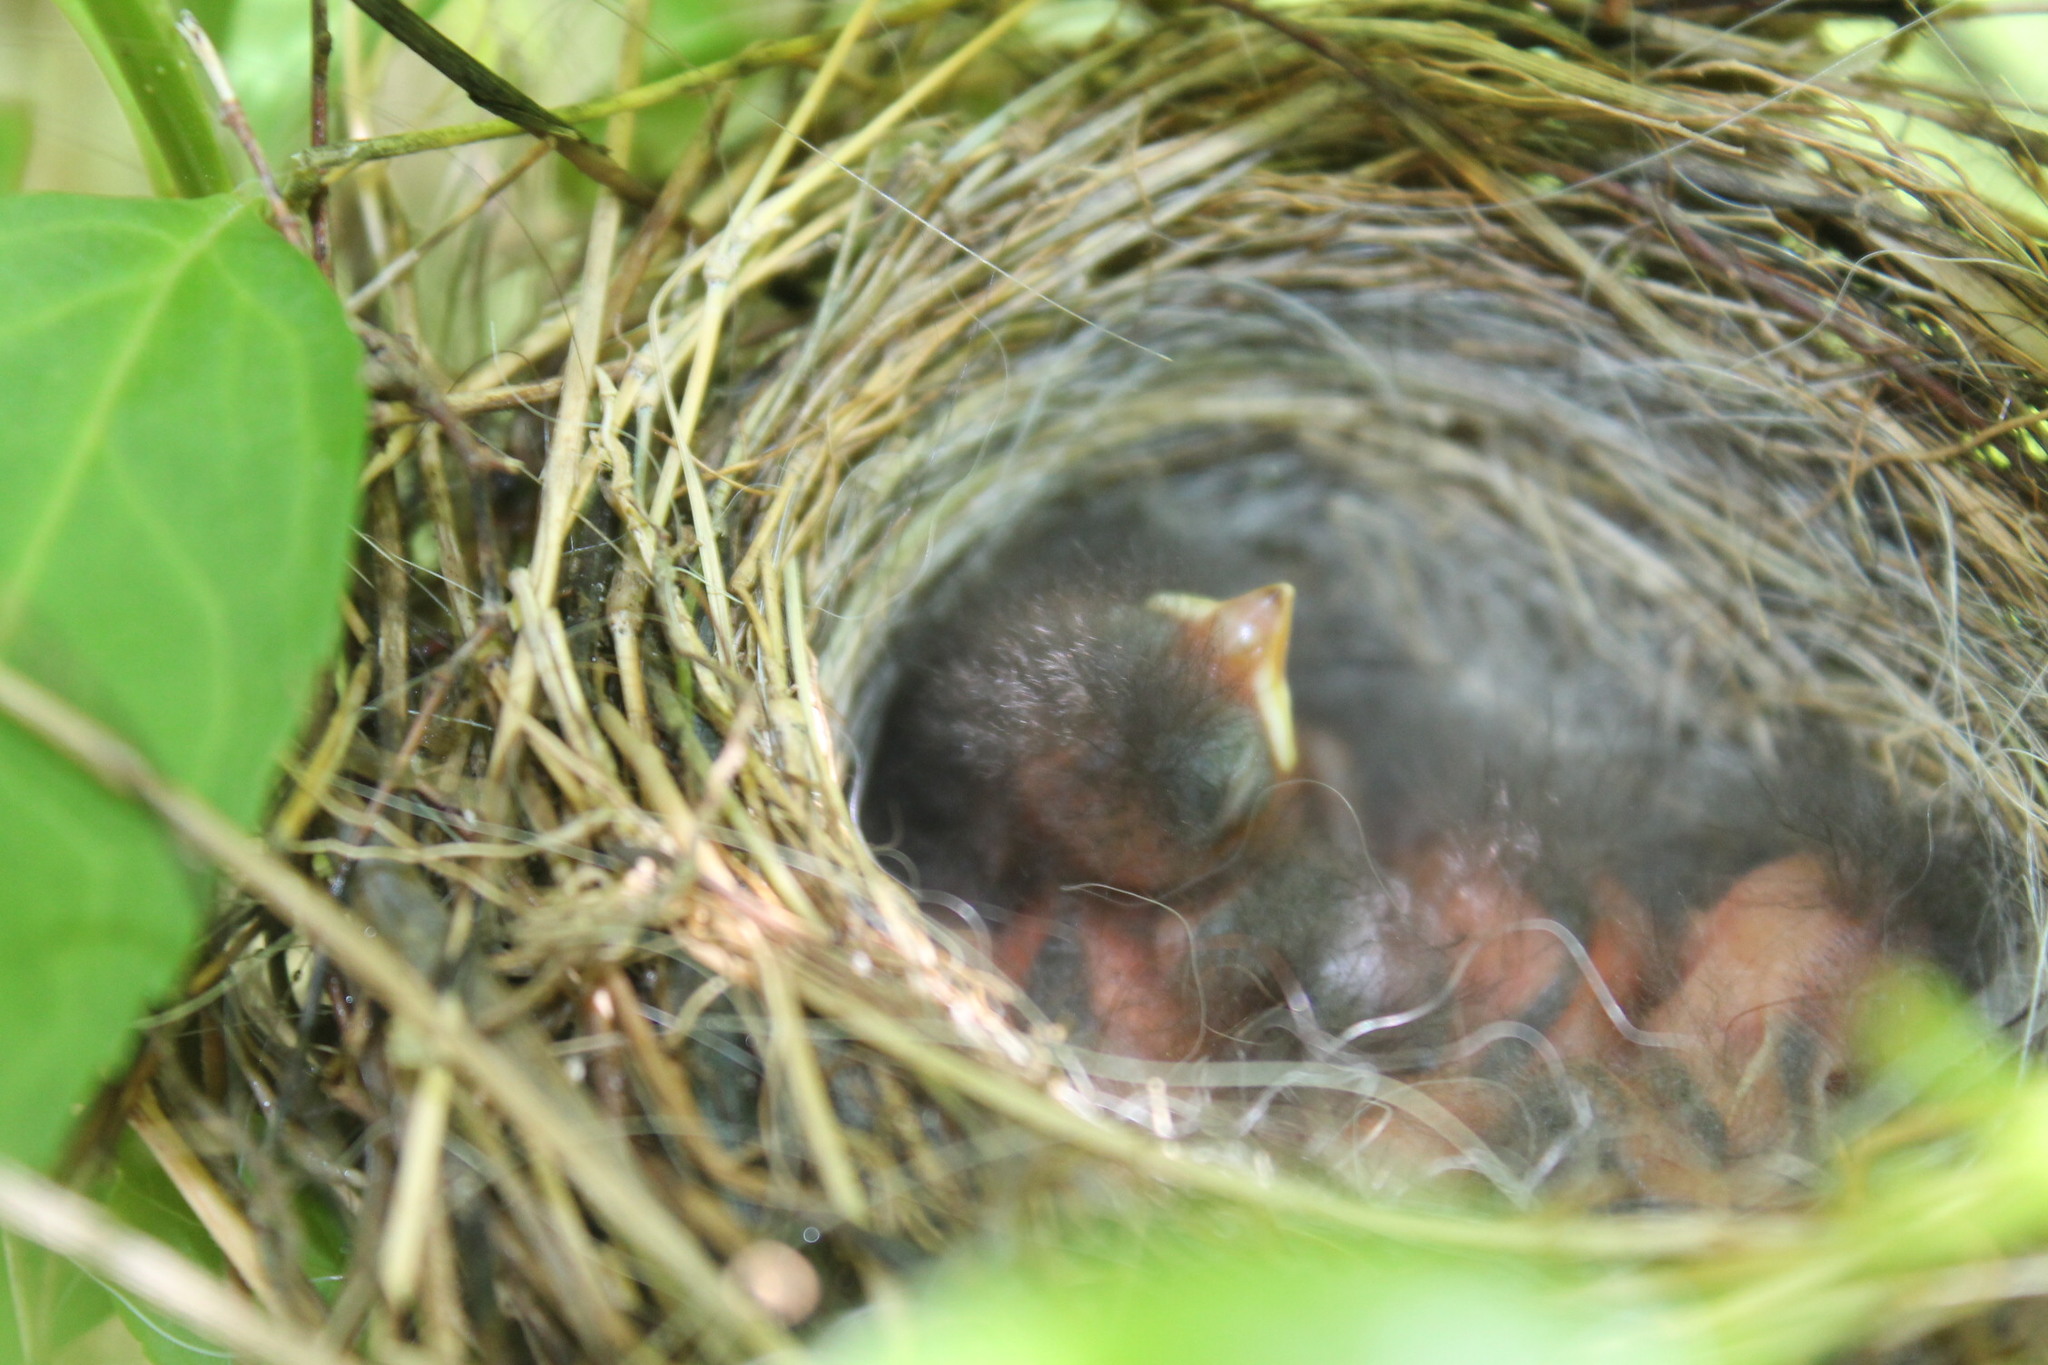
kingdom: Animalia
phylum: Chordata
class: Aves
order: Passeriformes
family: Passerellidae
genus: Spizella
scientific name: Spizella passerina
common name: Chipping sparrow
